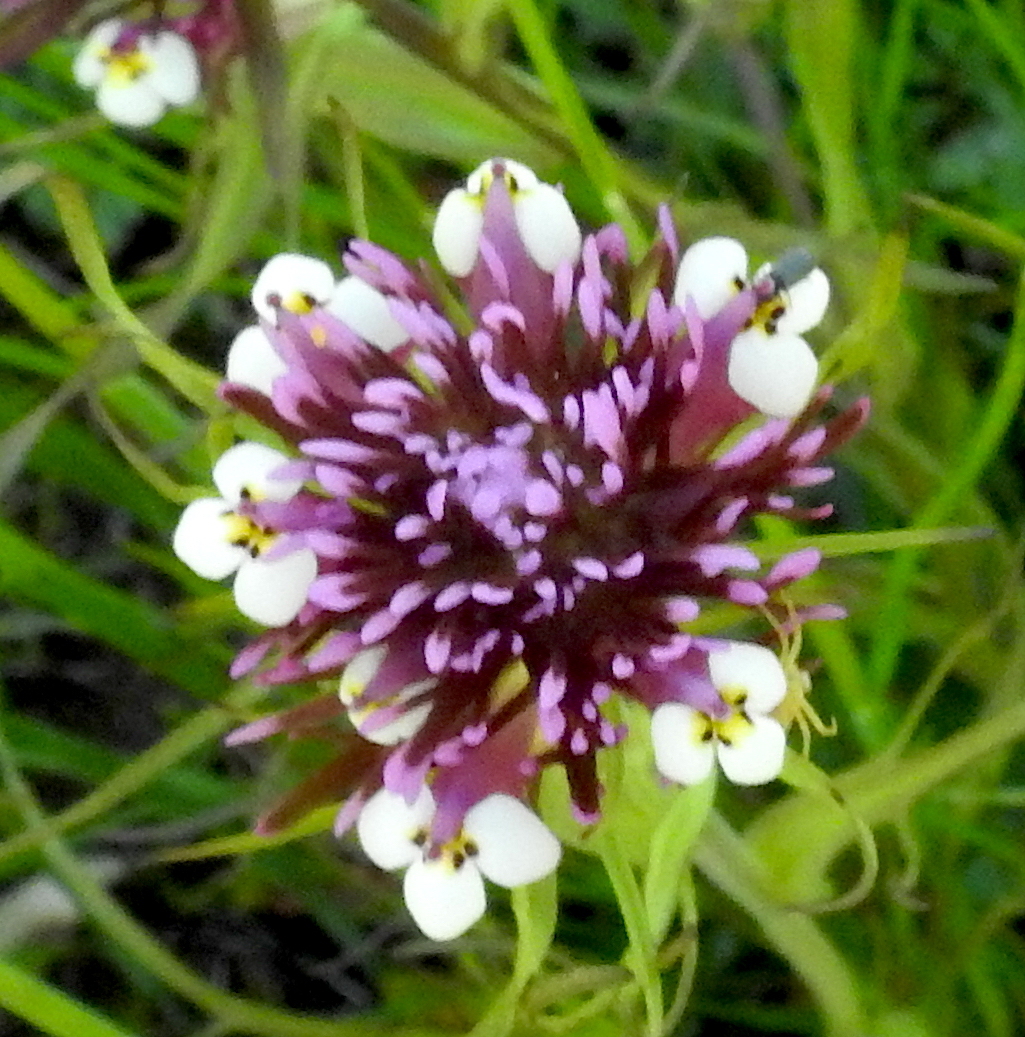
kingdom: Plantae
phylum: Tracheophyta
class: Magnoliopsida
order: Lamiales
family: Orobanchaceae
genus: Castilleja
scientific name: Castilleja densiflora
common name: Dense-flower indian paintbrush
